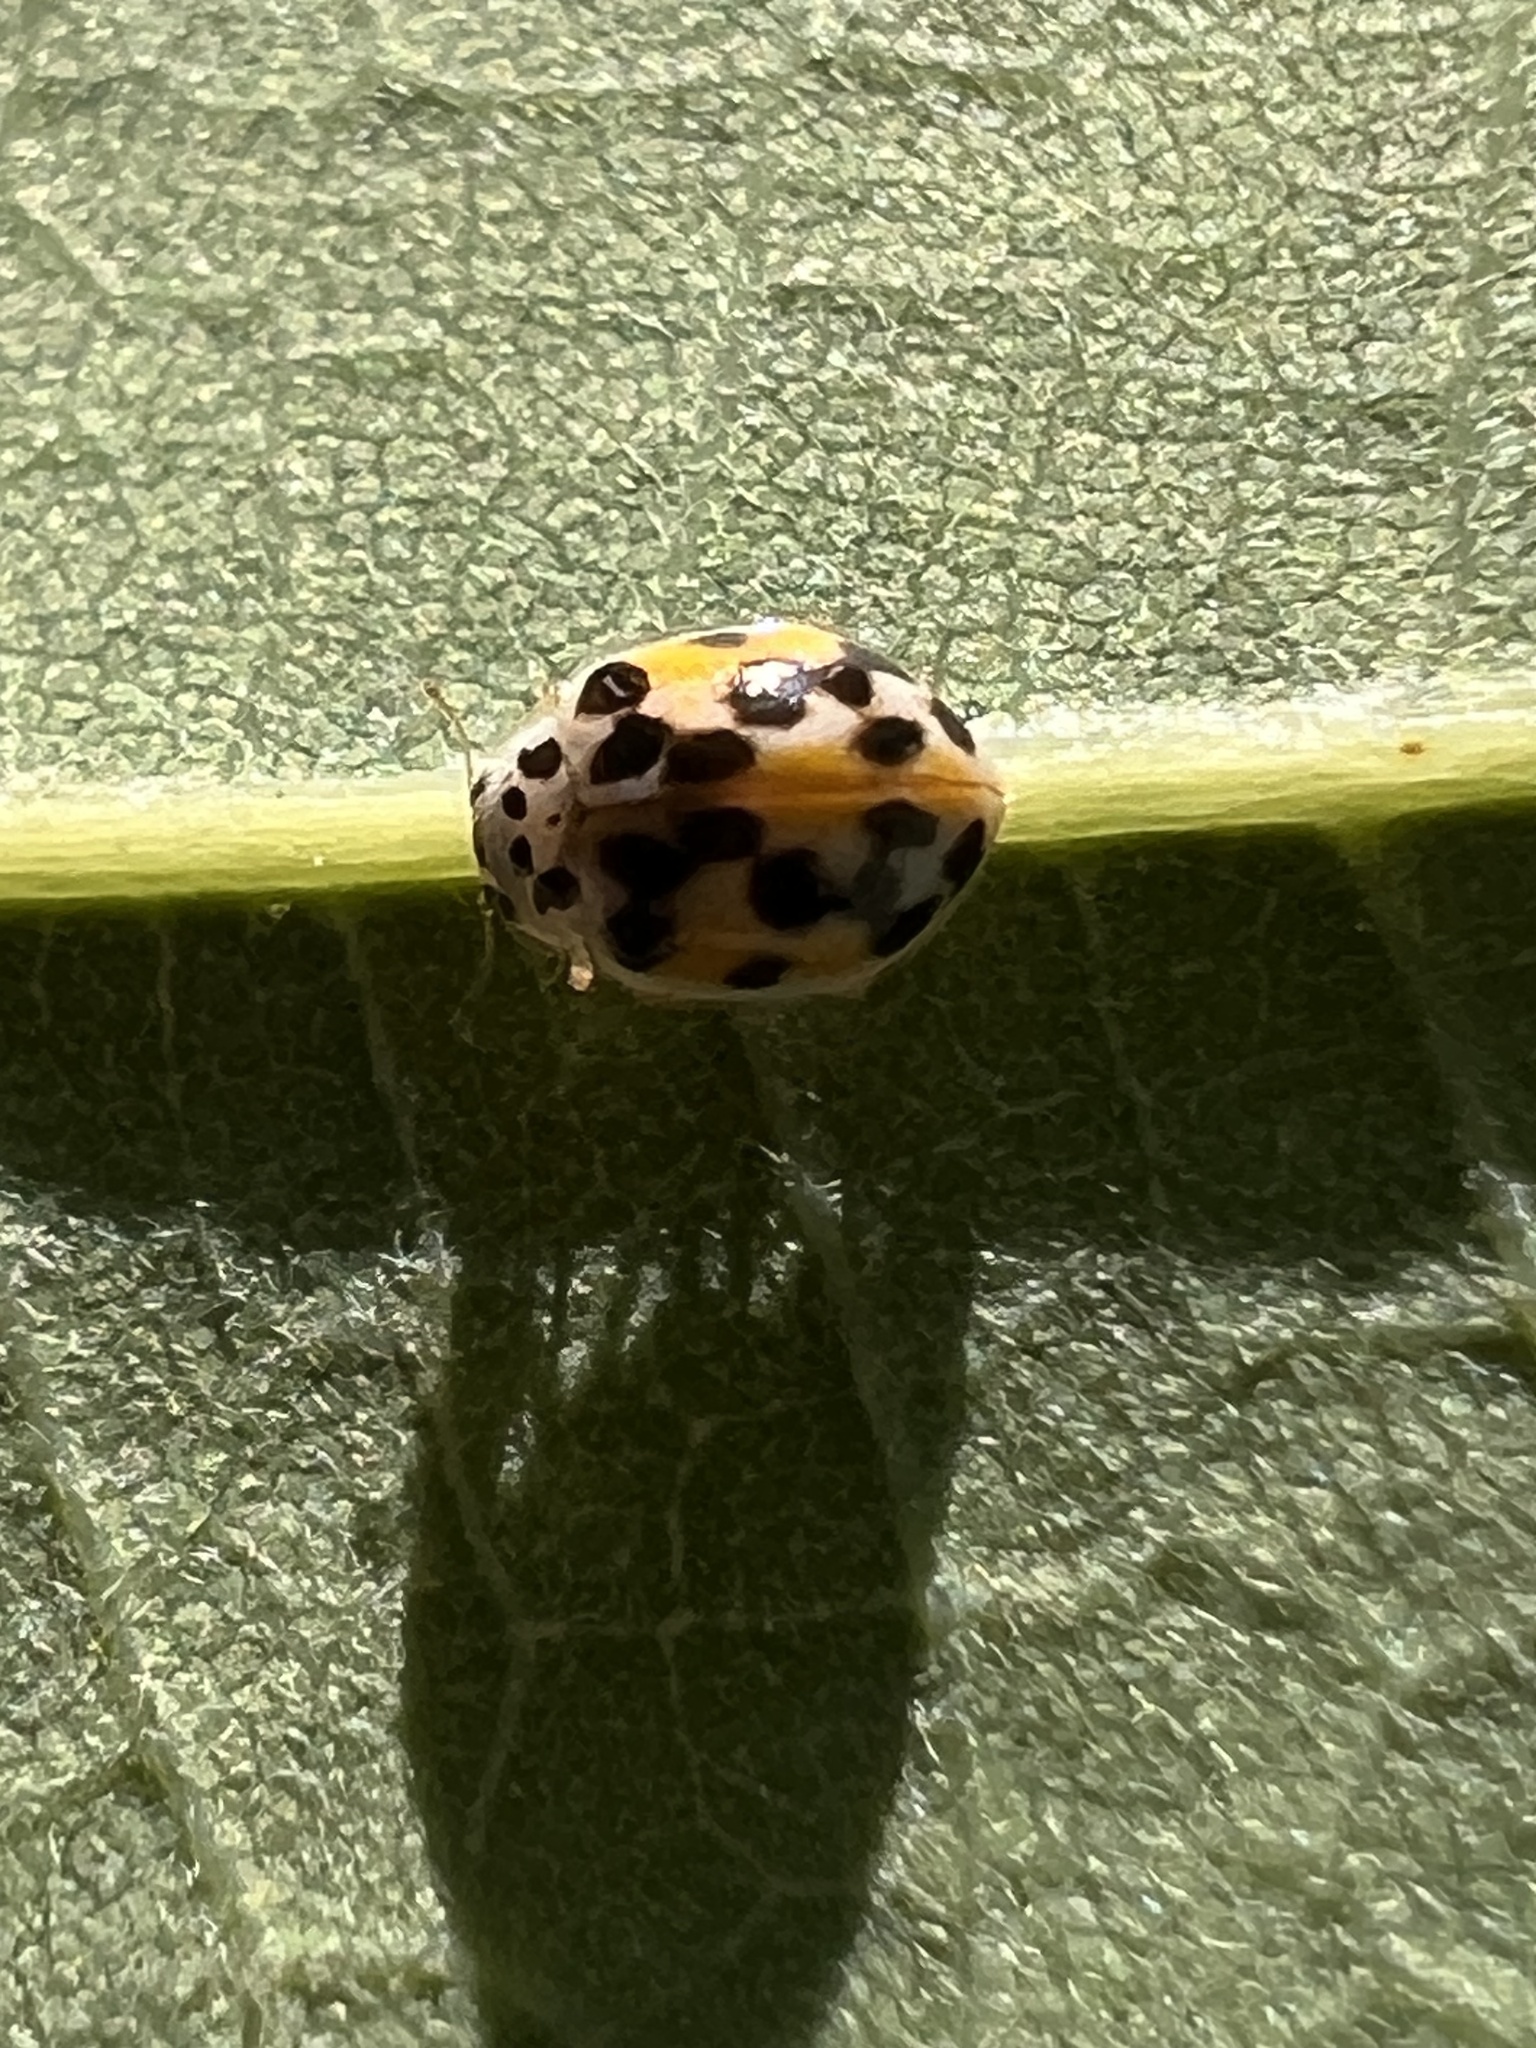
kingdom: Animalia
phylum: Arthropoda
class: Insecta
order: Coleoptera
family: Coccinellidae
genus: Psyllobora
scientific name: Psyllobora vigintimaculata
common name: Ladybird beetle
